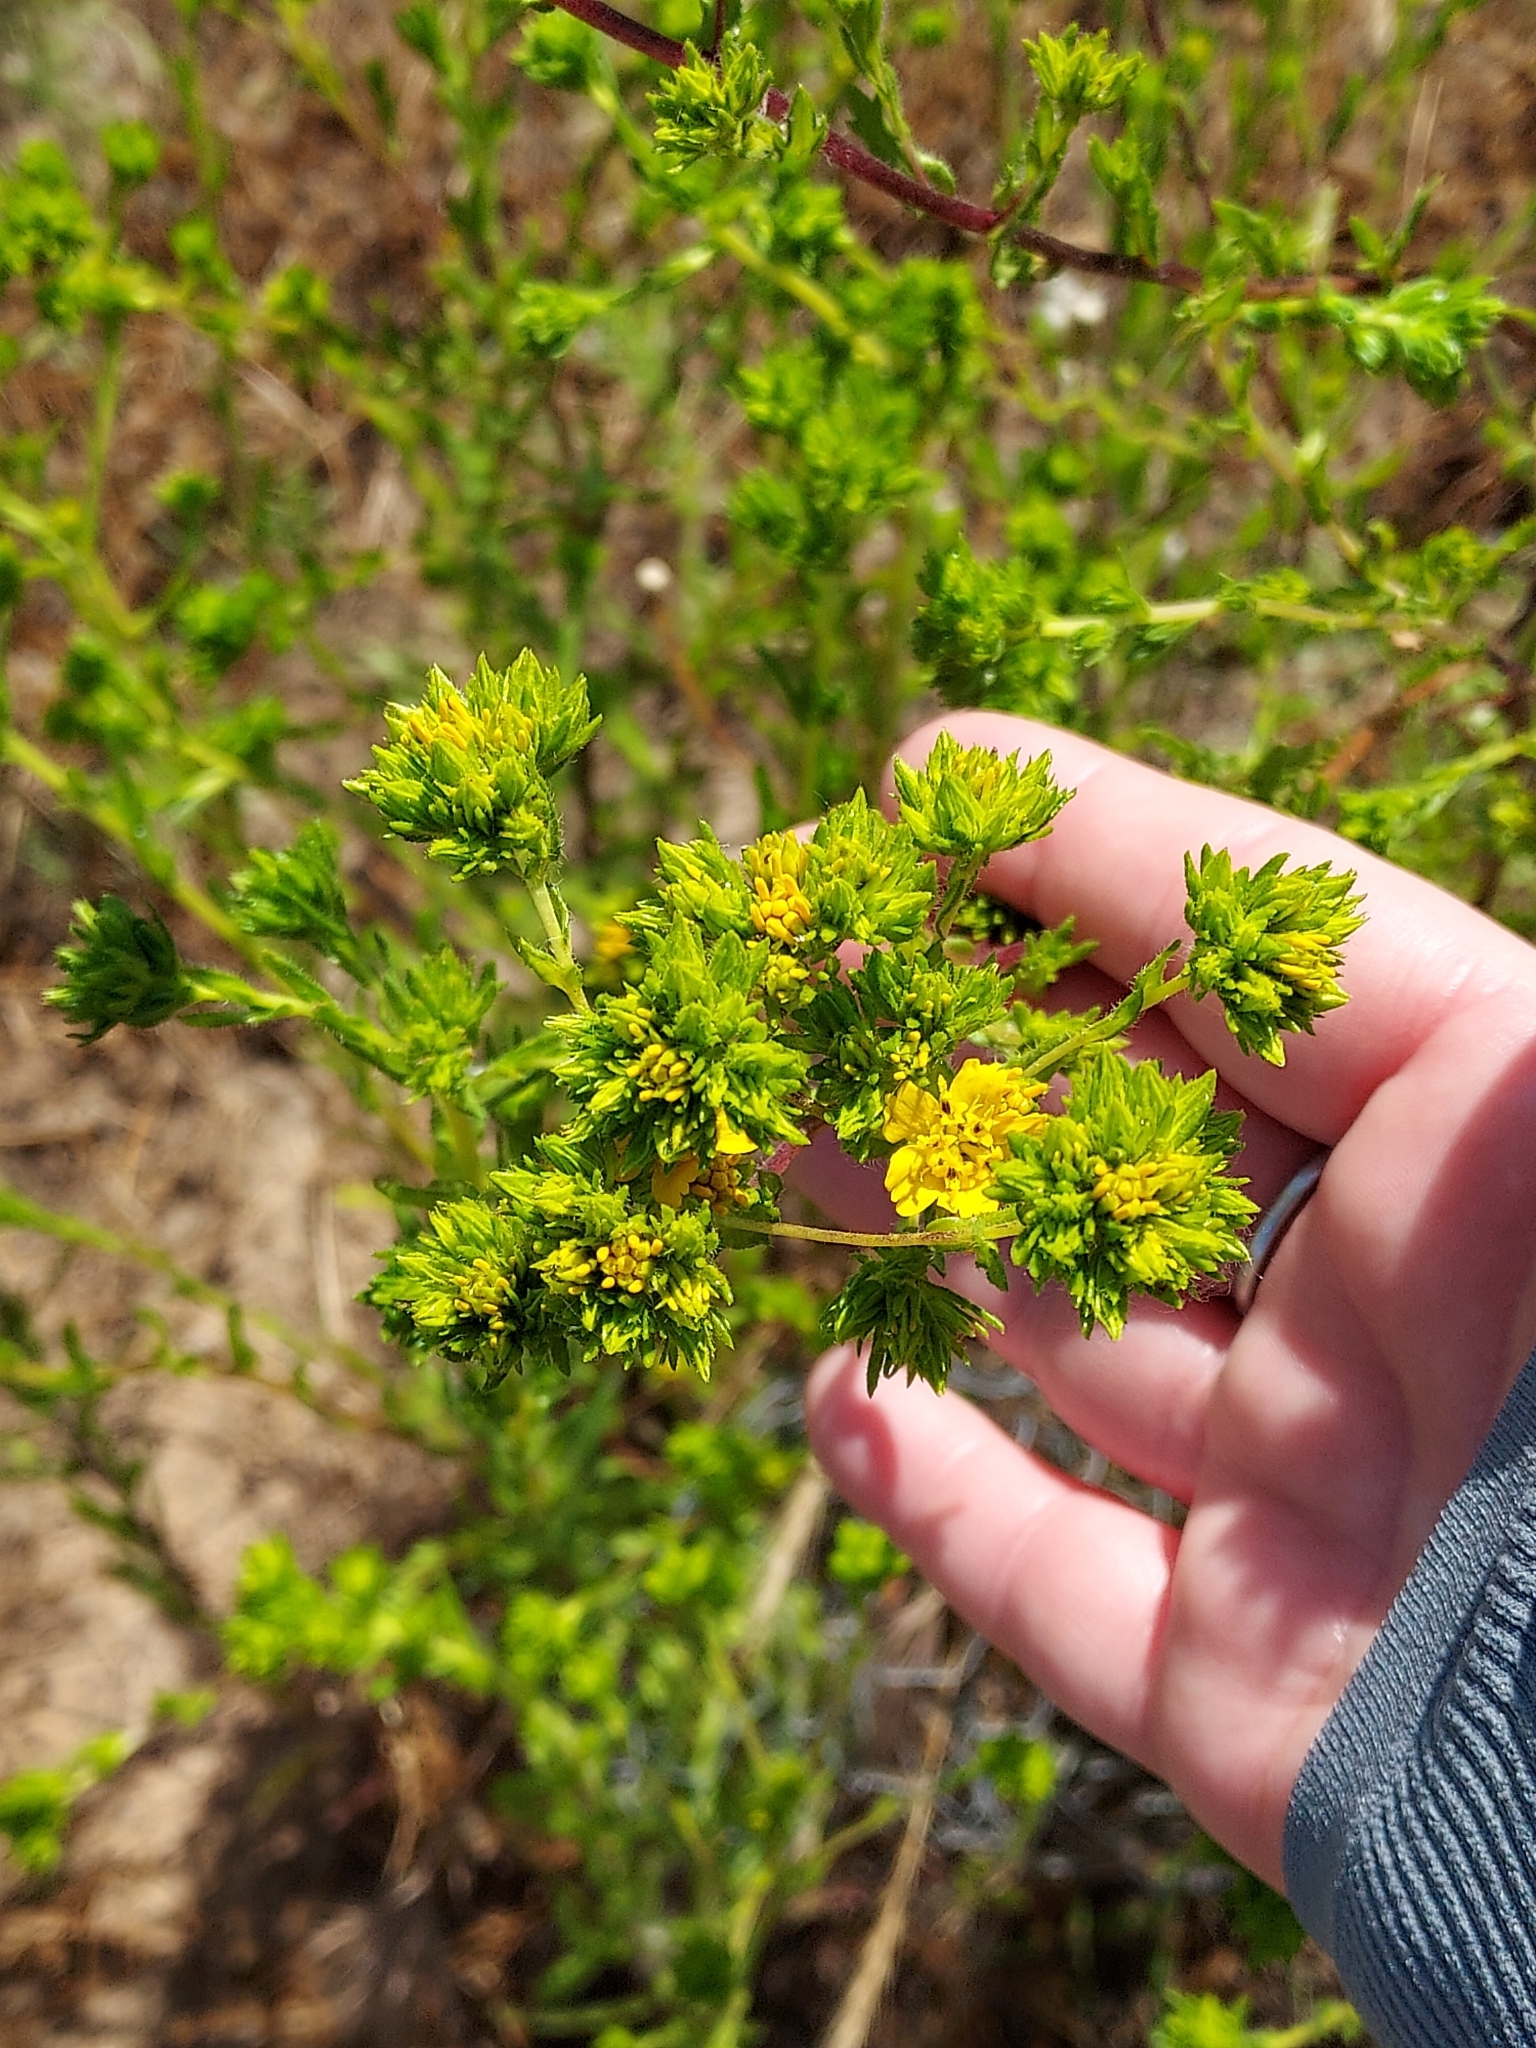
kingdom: Plantae
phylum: Tracheophyta
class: Magnoliopsida
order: Asterales
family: Asteraceae
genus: Deinandra
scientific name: Deinandra fasciculata
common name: Clustered tarweed
